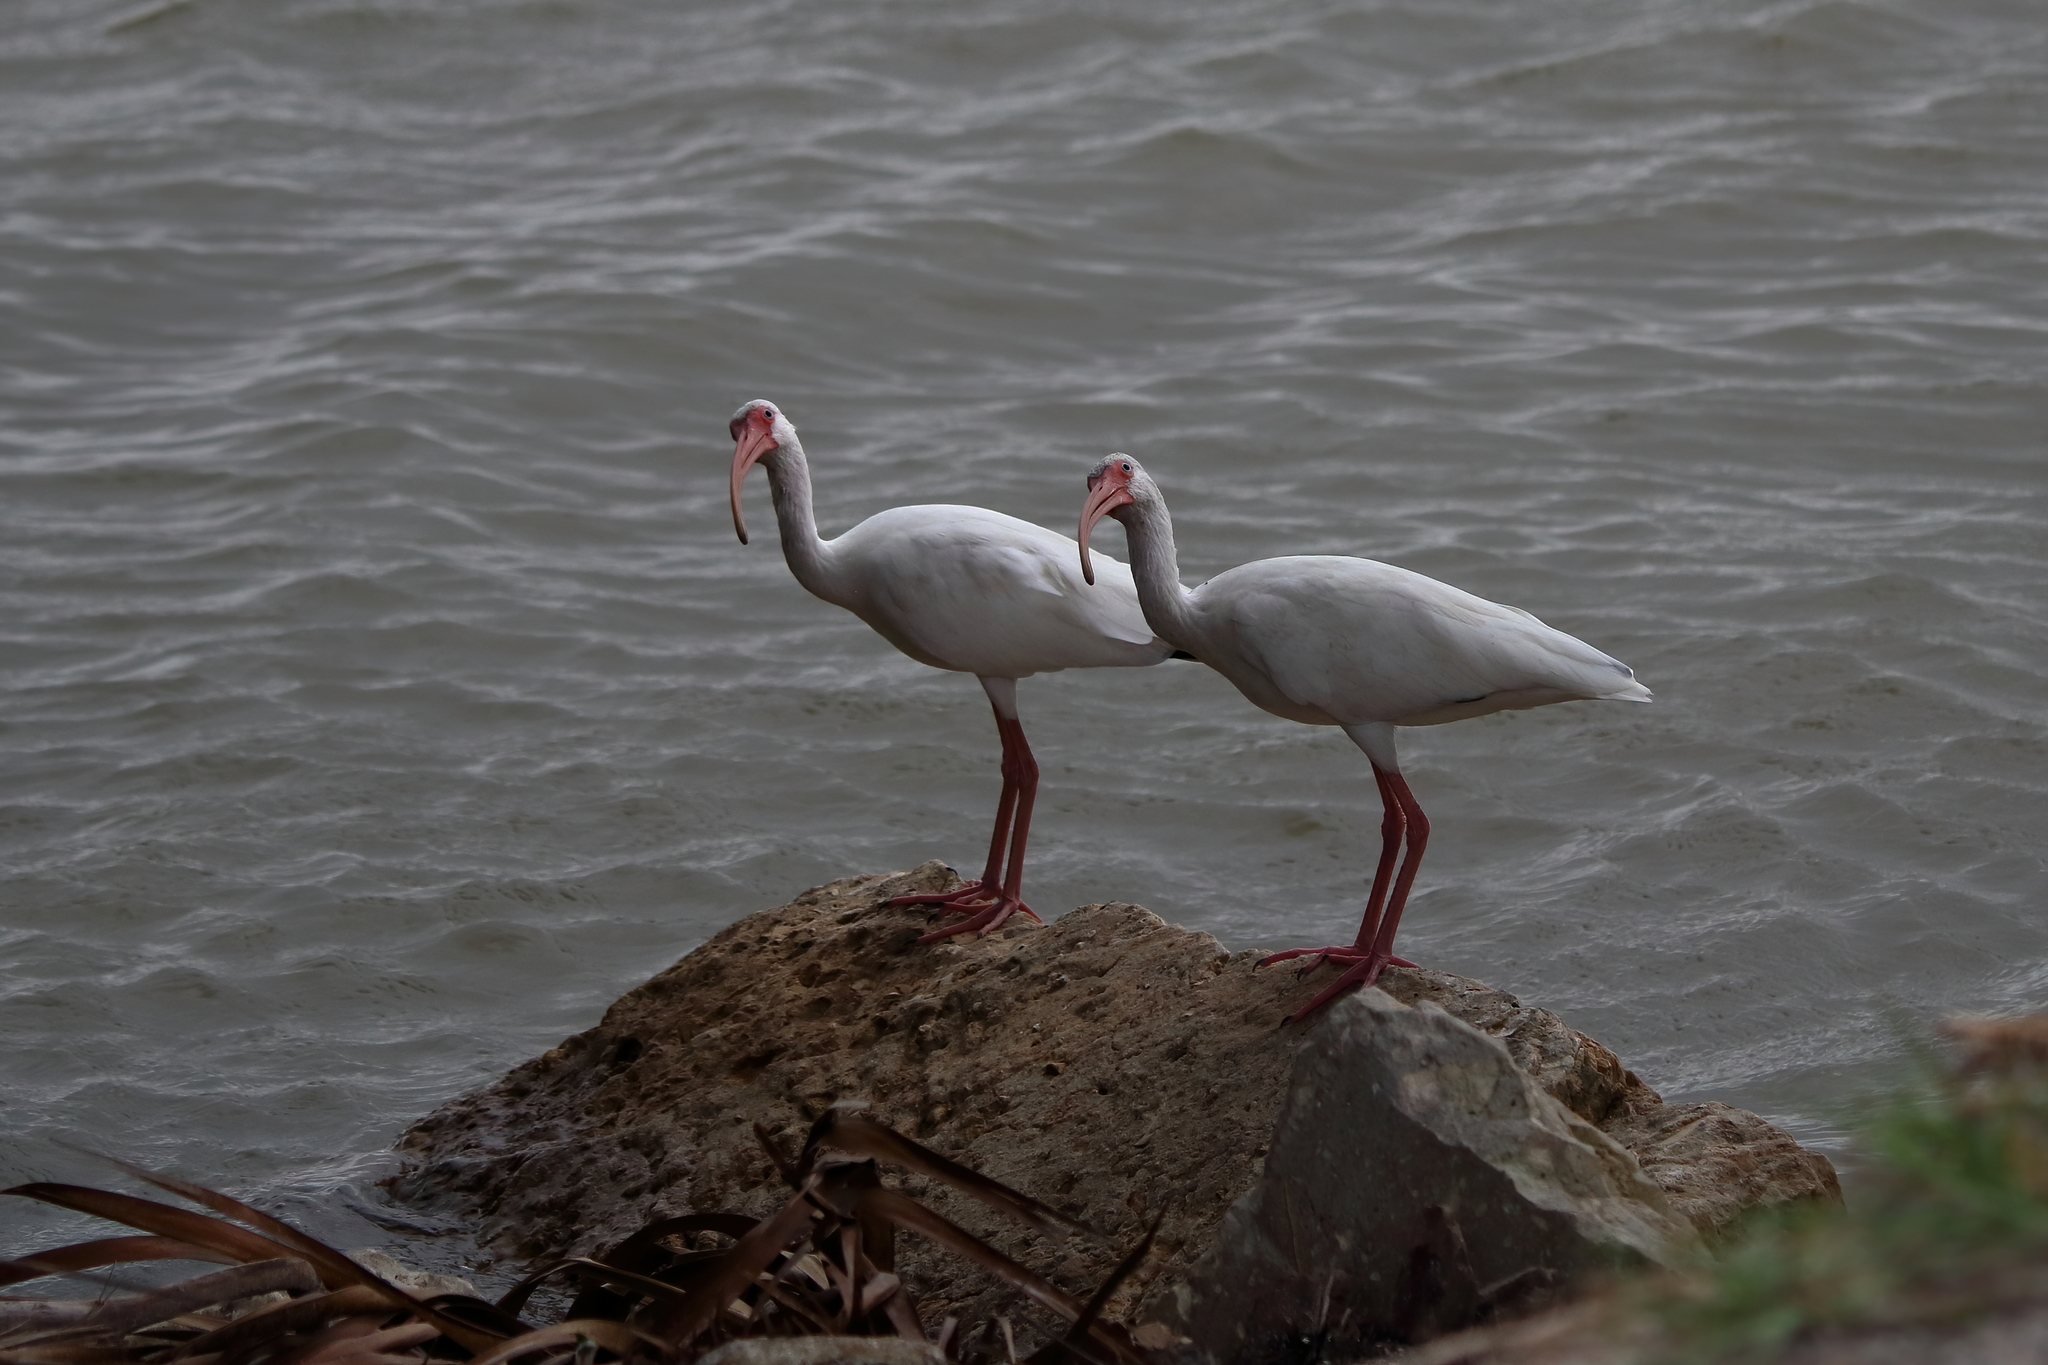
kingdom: Animalia
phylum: Chordata
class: Aves
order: Pelecaniformes
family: Threskiornithidae
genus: Eudocimus
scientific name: Eudocimus albus
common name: White ibis
